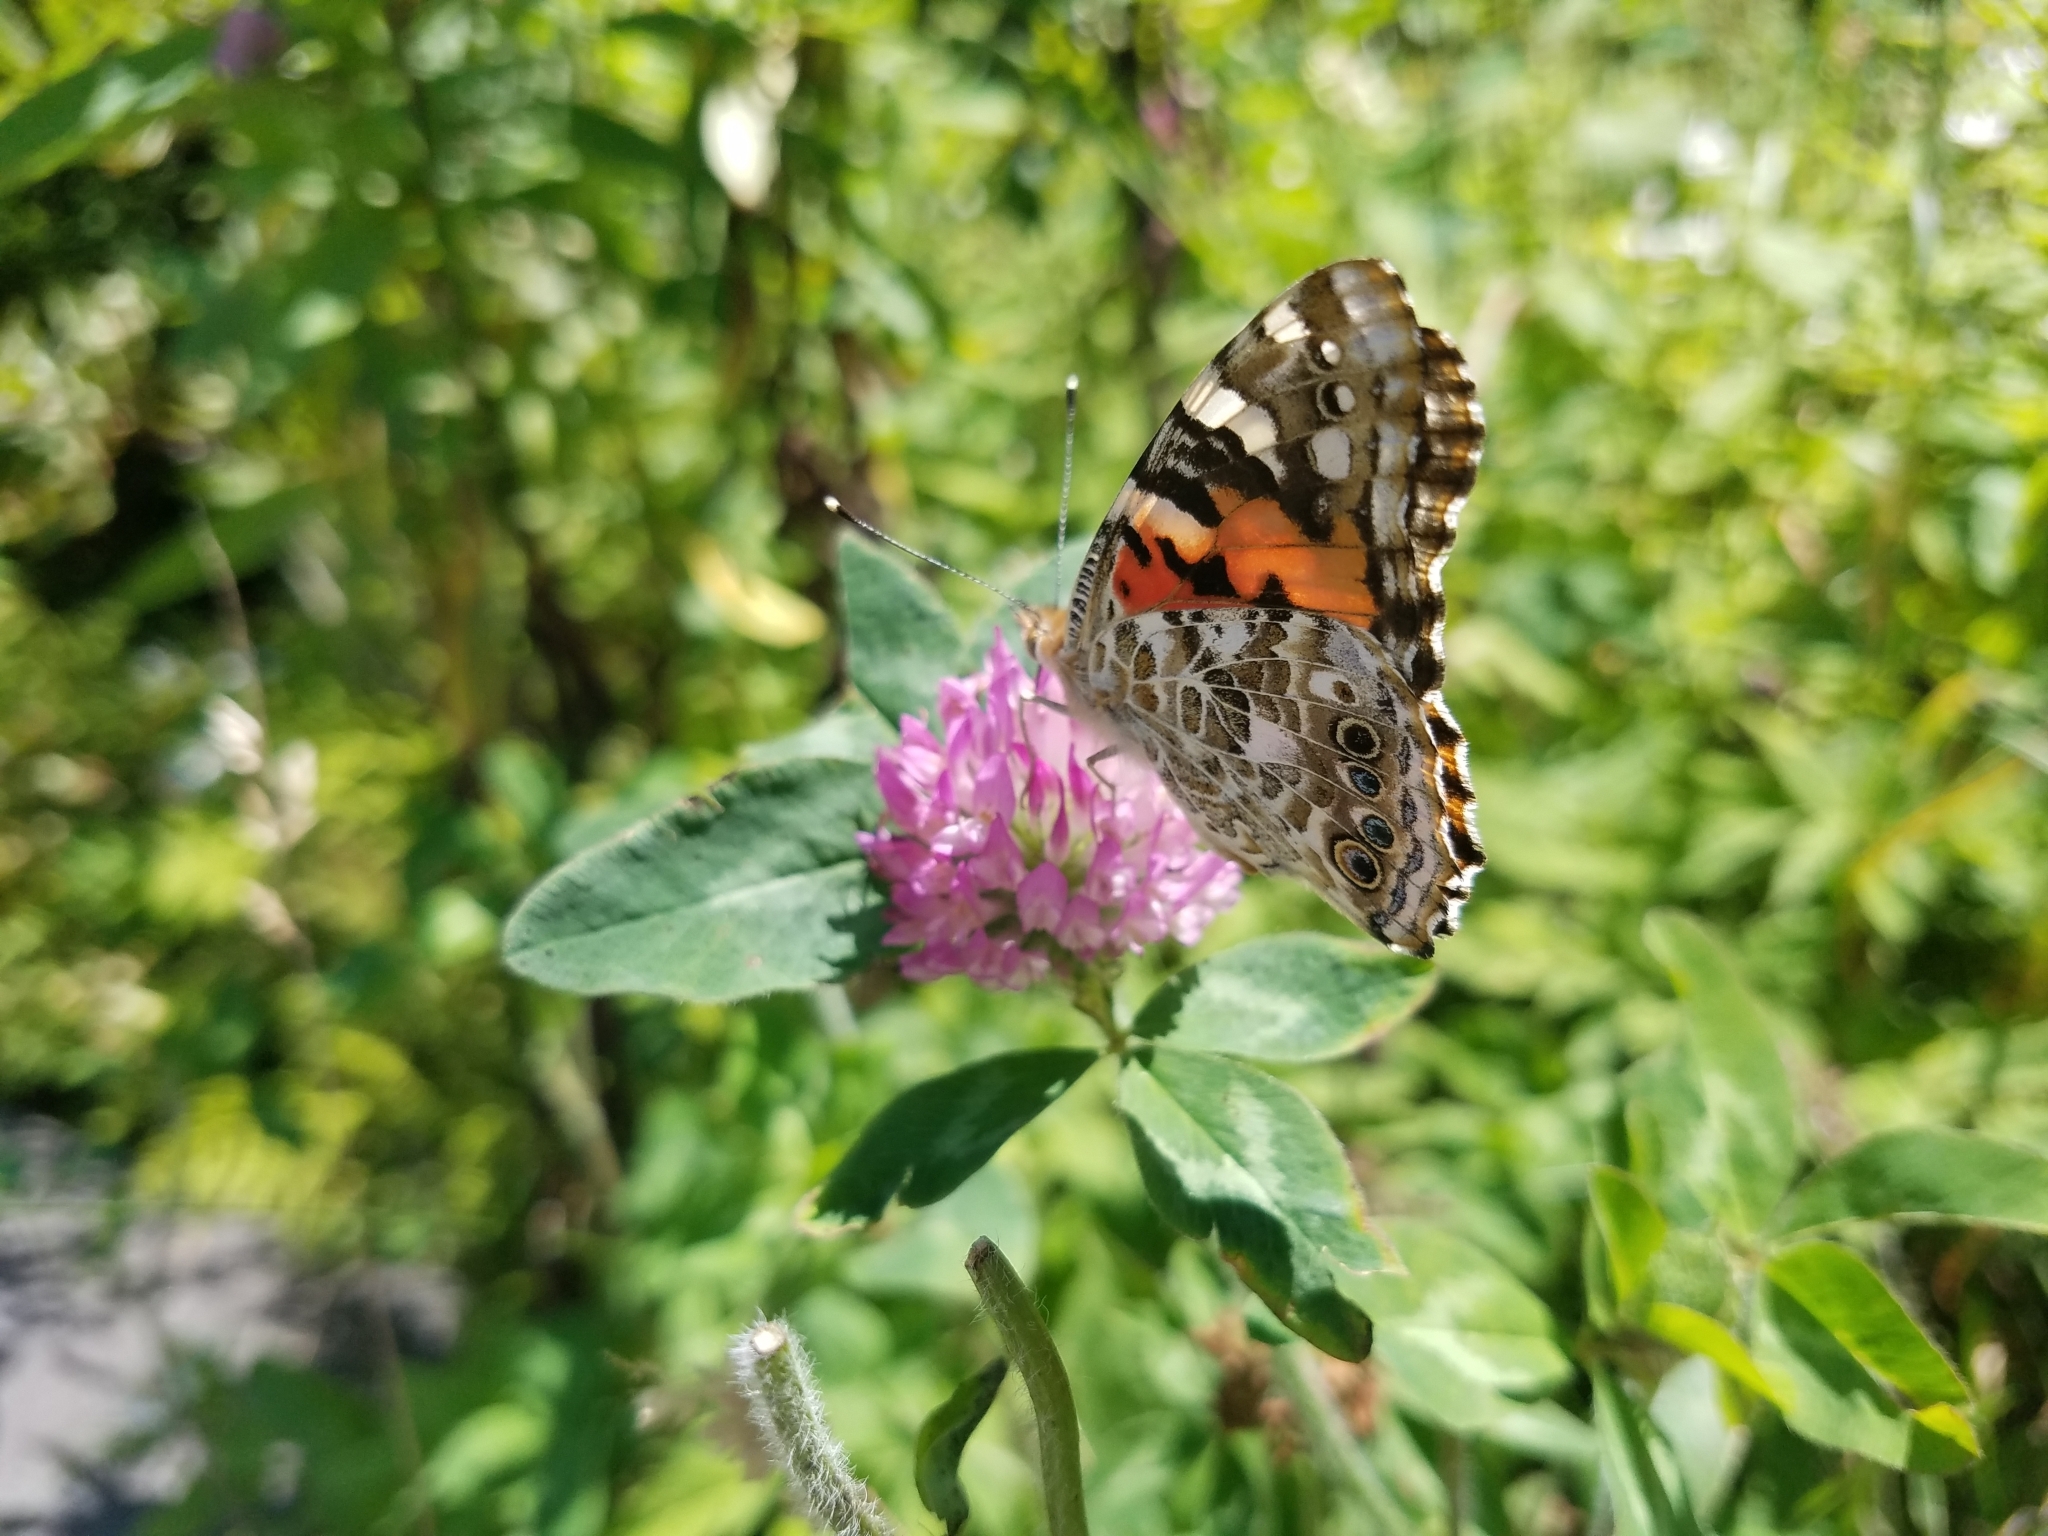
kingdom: Animalia
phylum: Arthropoda
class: Insecta
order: Lepidoptera
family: Nymphalidae
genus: Vanessa
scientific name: Vanessa cardui
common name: Painted lady
